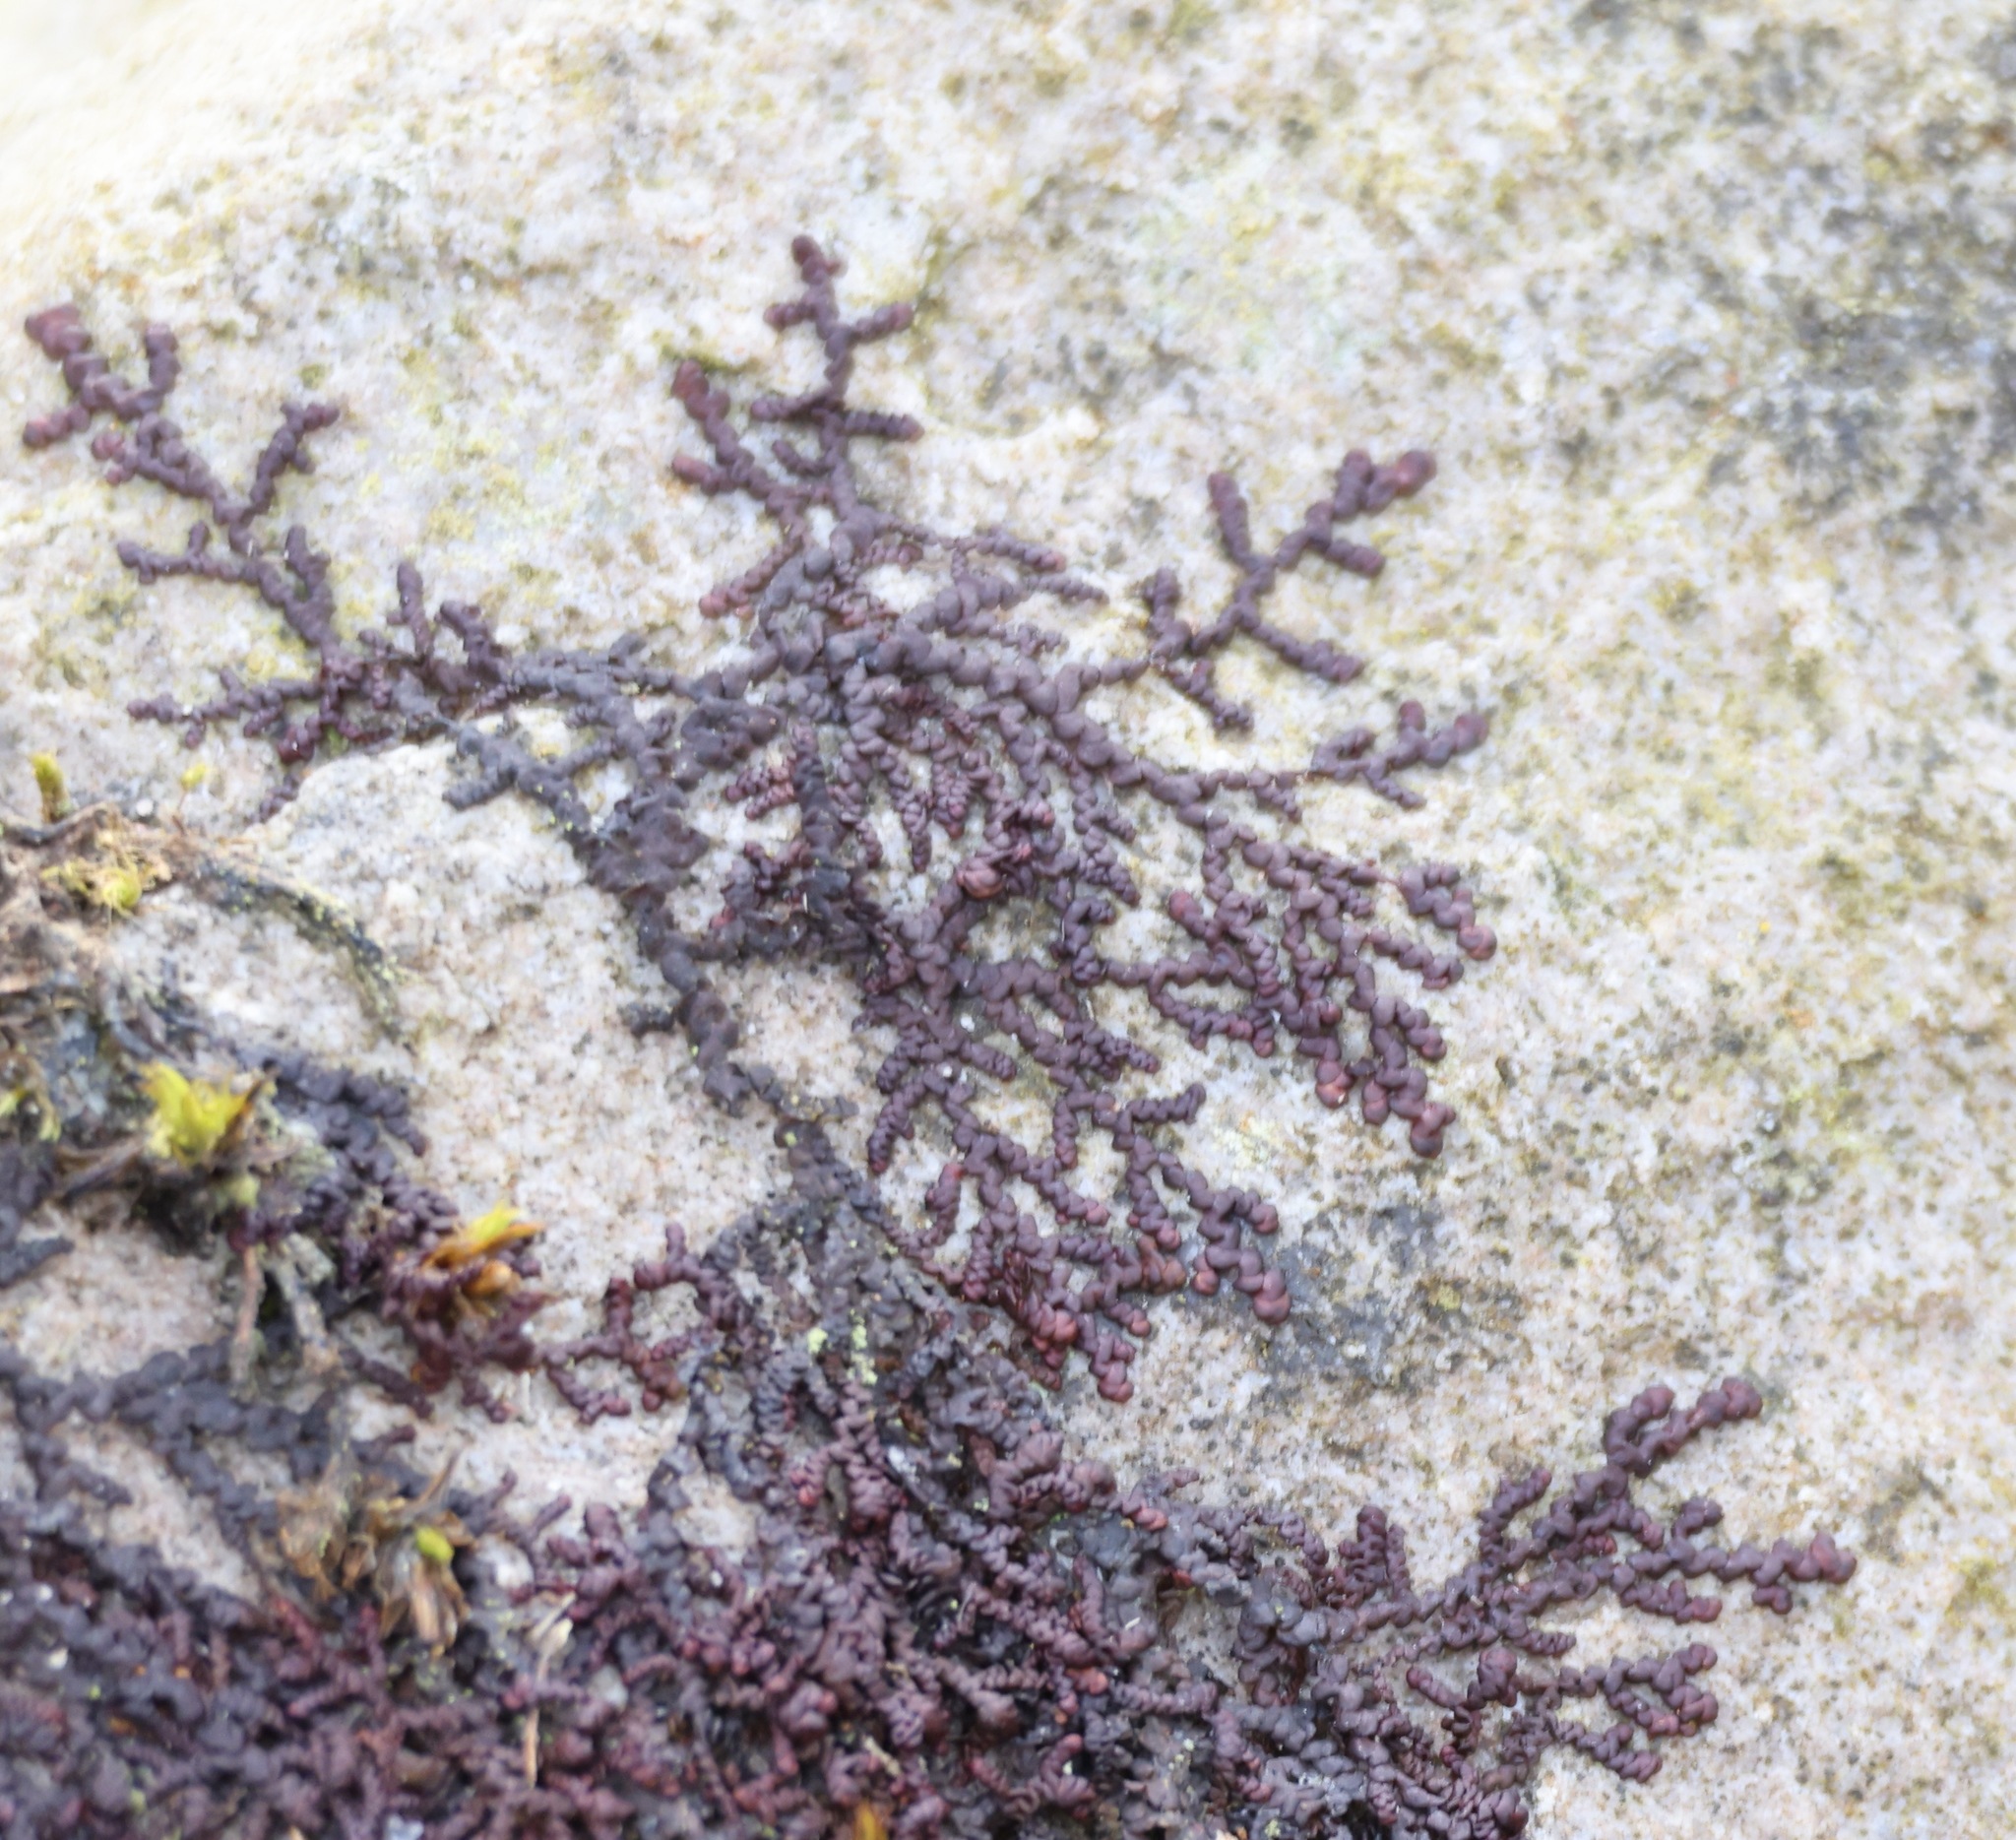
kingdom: Plantae
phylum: Marchantiophyta
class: Jungermanniopsida
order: Porellales
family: Frullaniaceae
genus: Frullania
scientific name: Frullania dilatata
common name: Dilated scalewort
